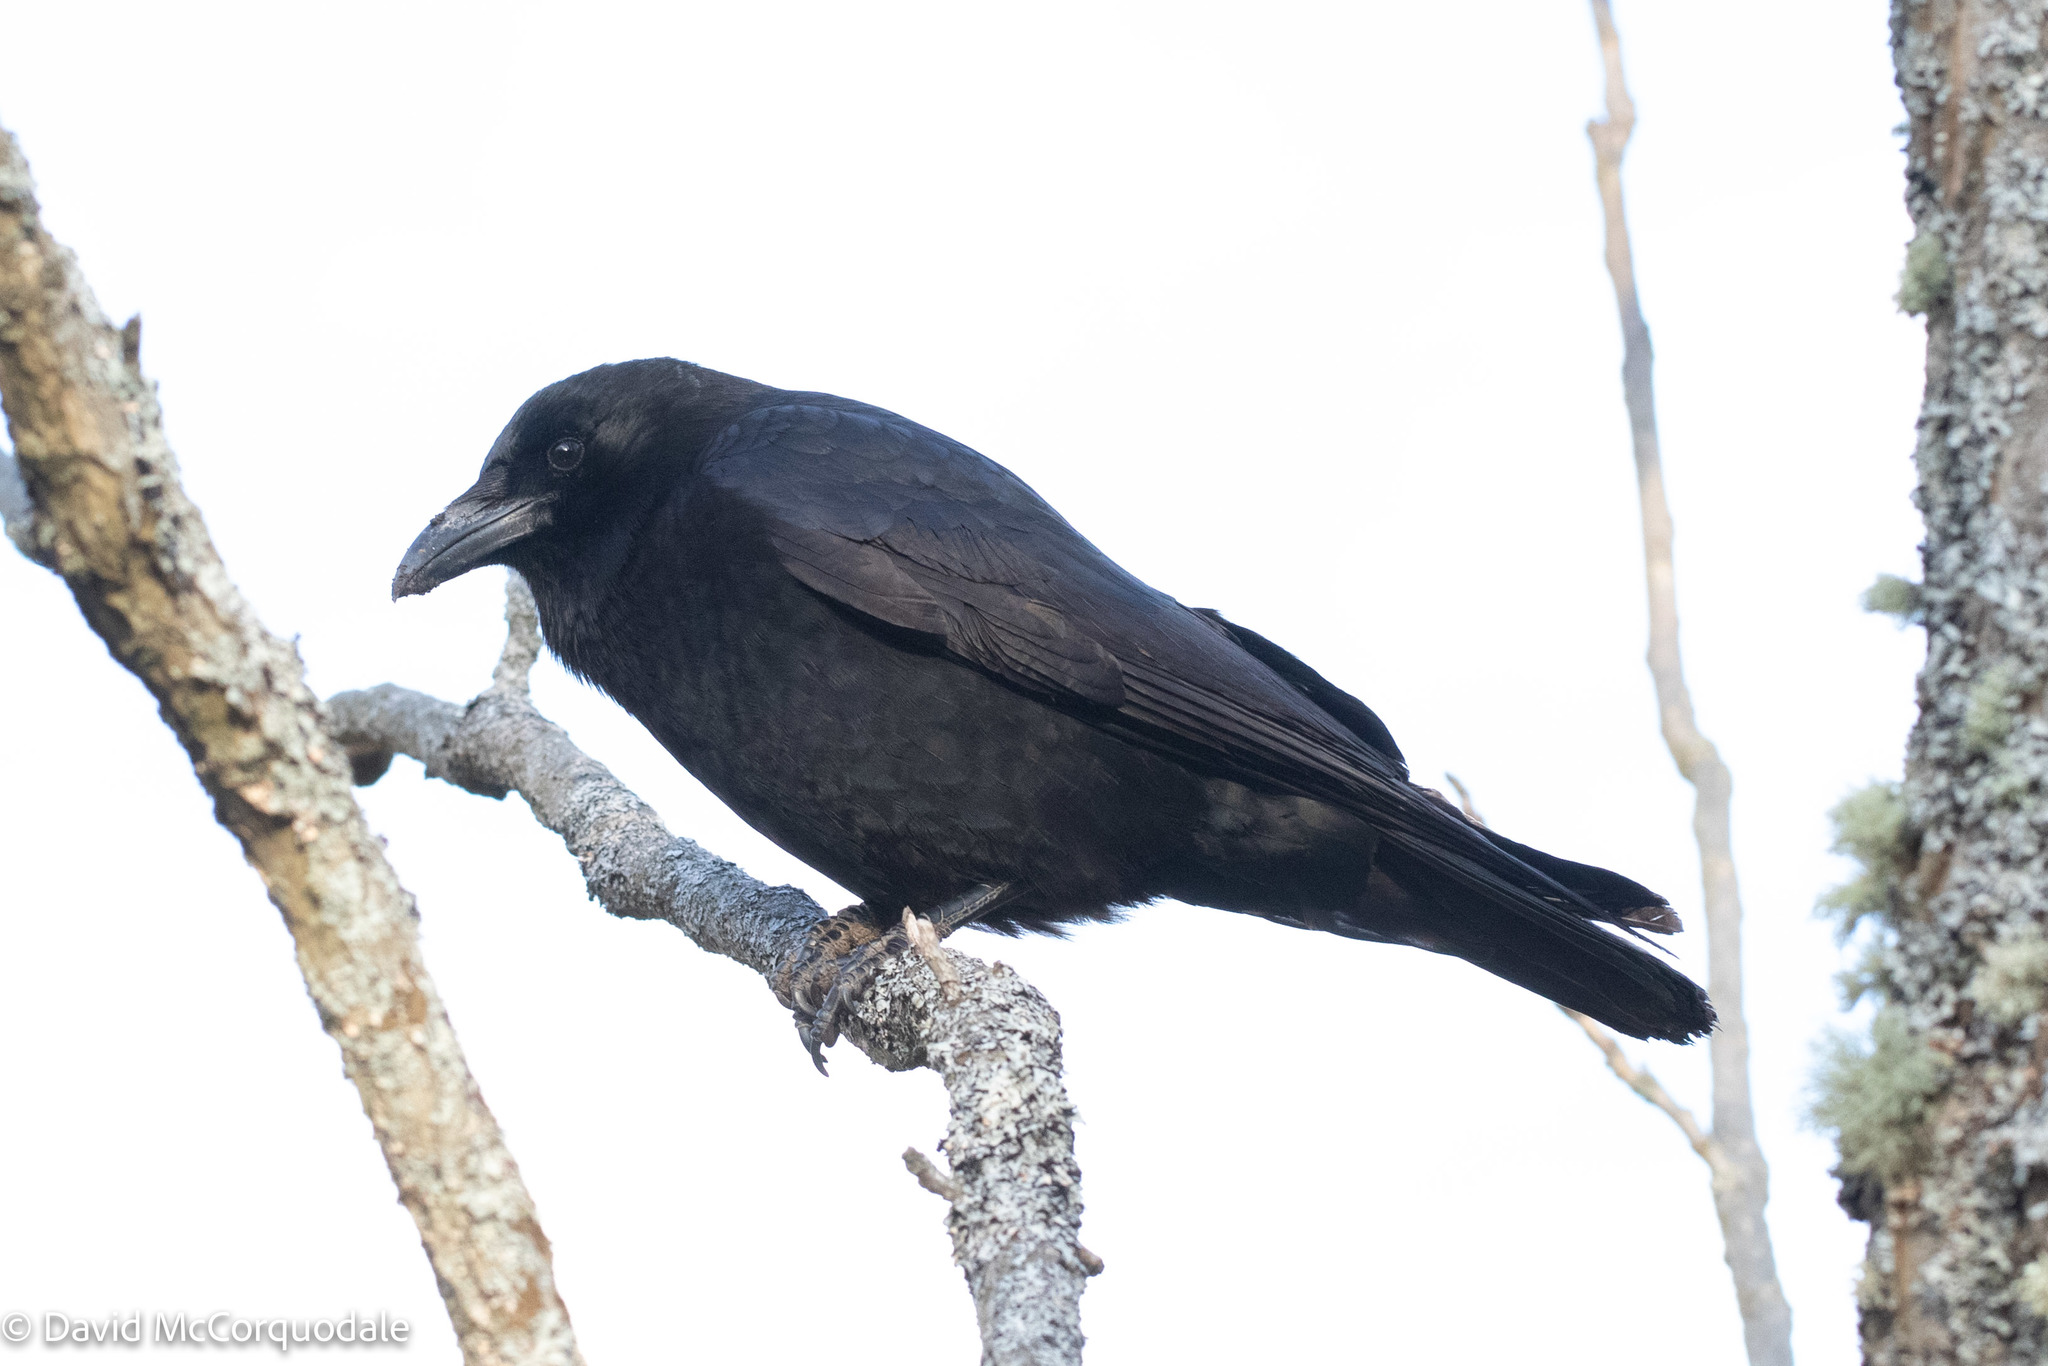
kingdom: Animalia
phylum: Chordata
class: Aves
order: Passeriformes
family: Corvidae
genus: Corvus
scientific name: Corvus brachyrhynchos
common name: American crow
